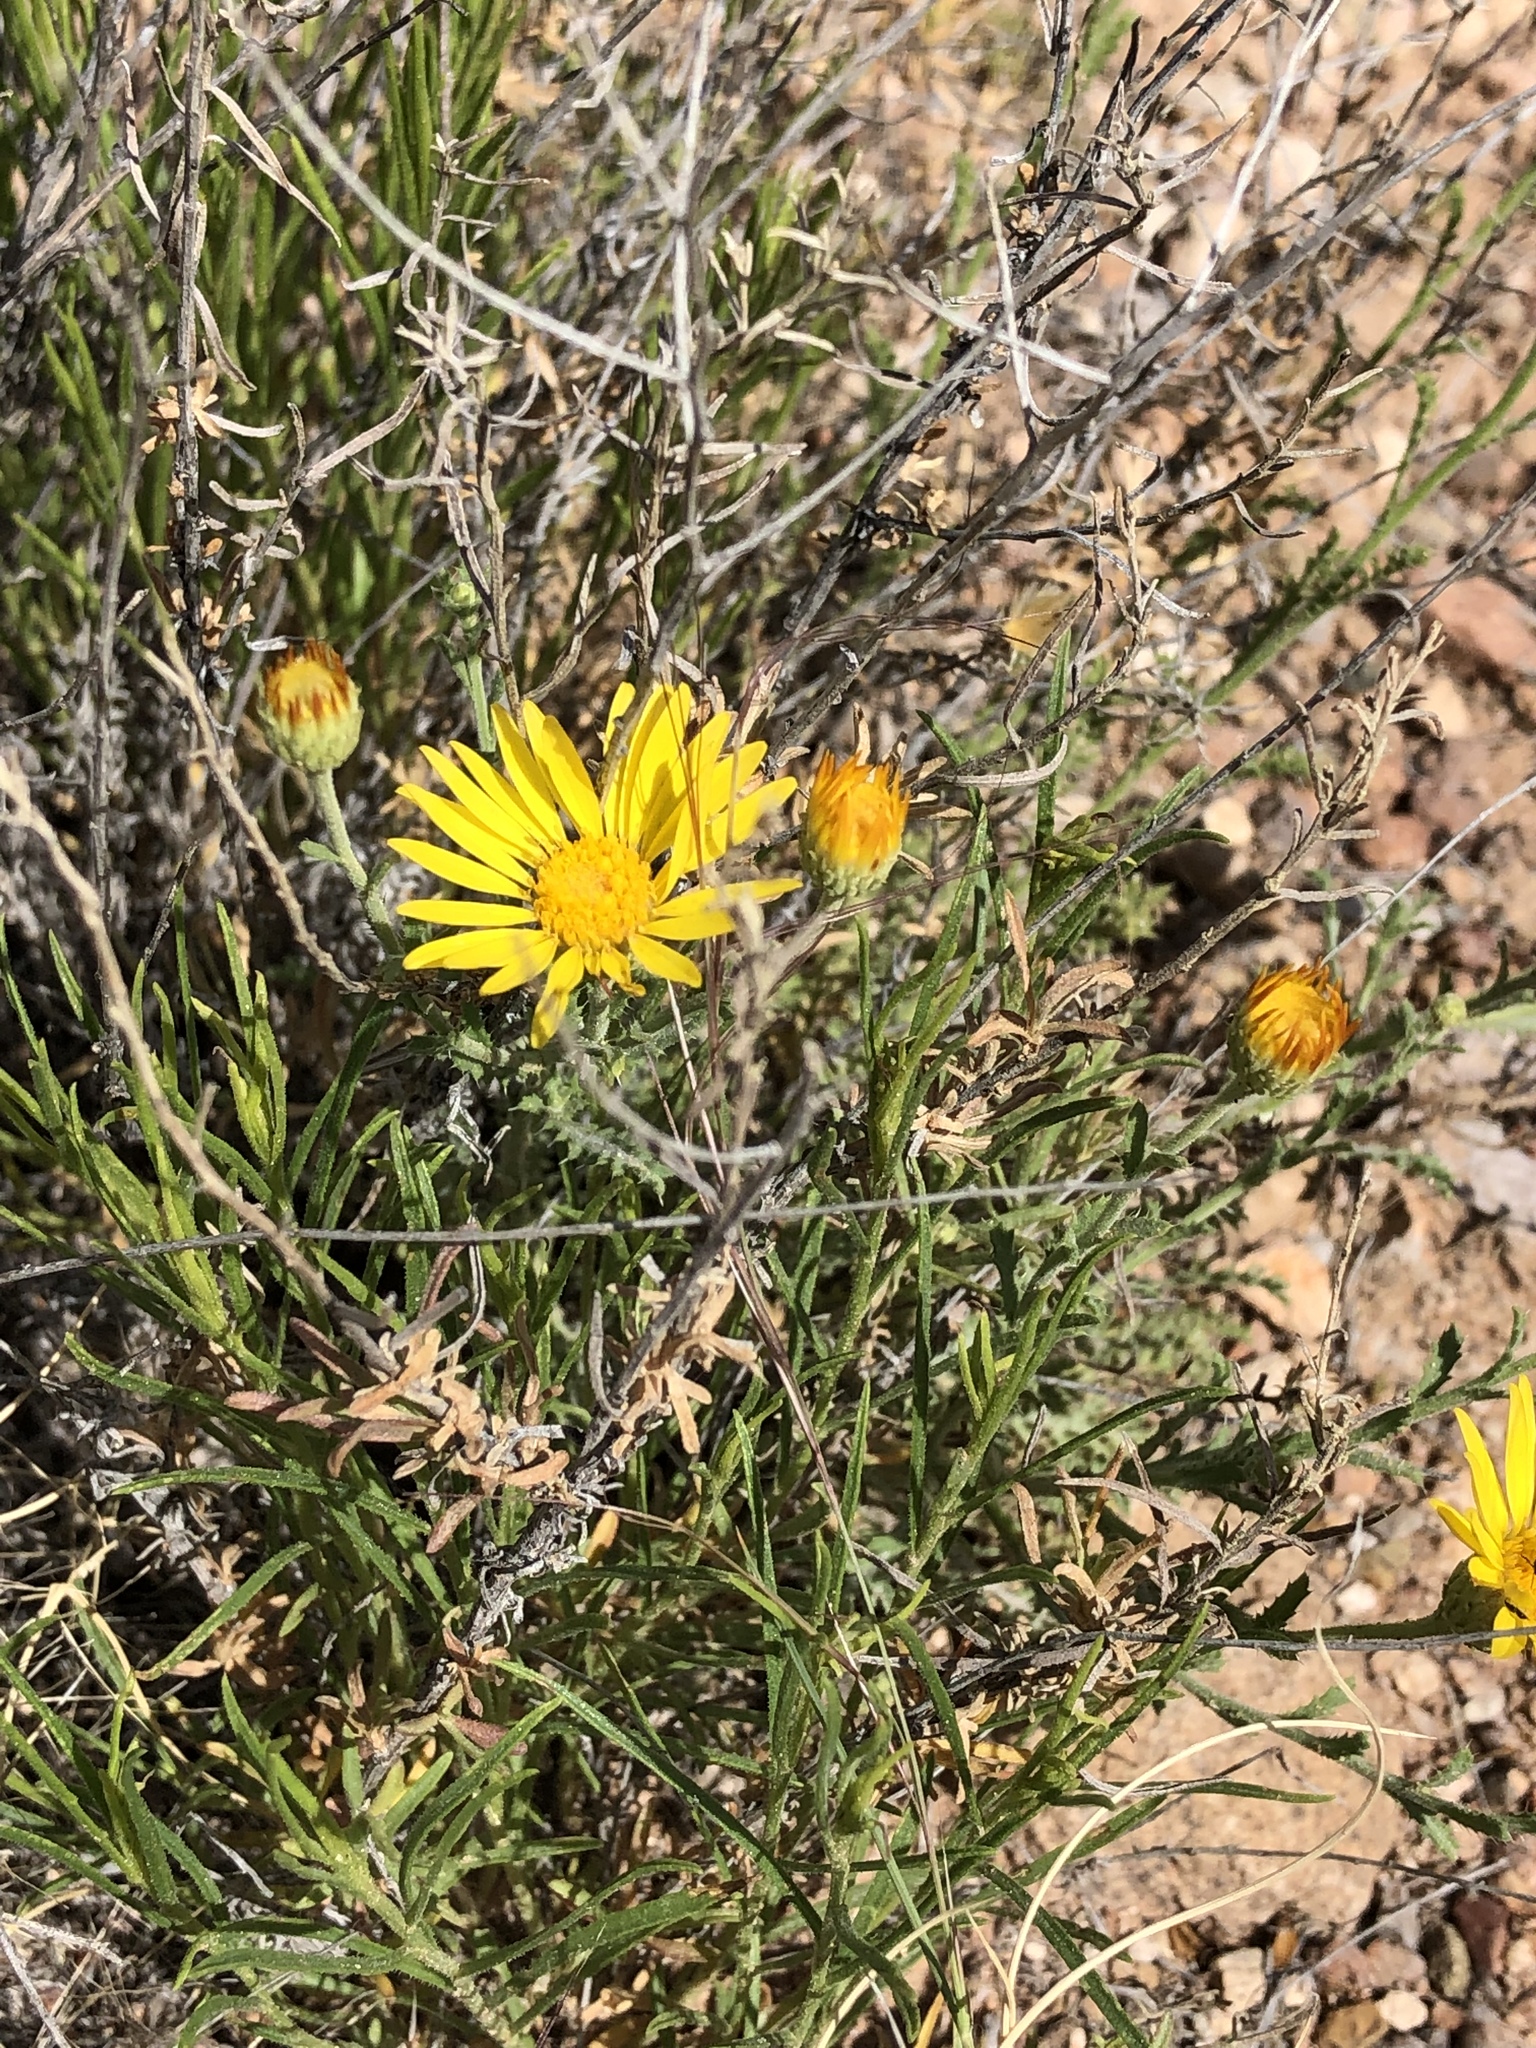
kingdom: Plantae
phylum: Tracheophyta
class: Magnoliopsida
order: Asterales
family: Asteraceae
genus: Xanthisma
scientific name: Xanthisma spinulosum
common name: Spiny goldenweed
